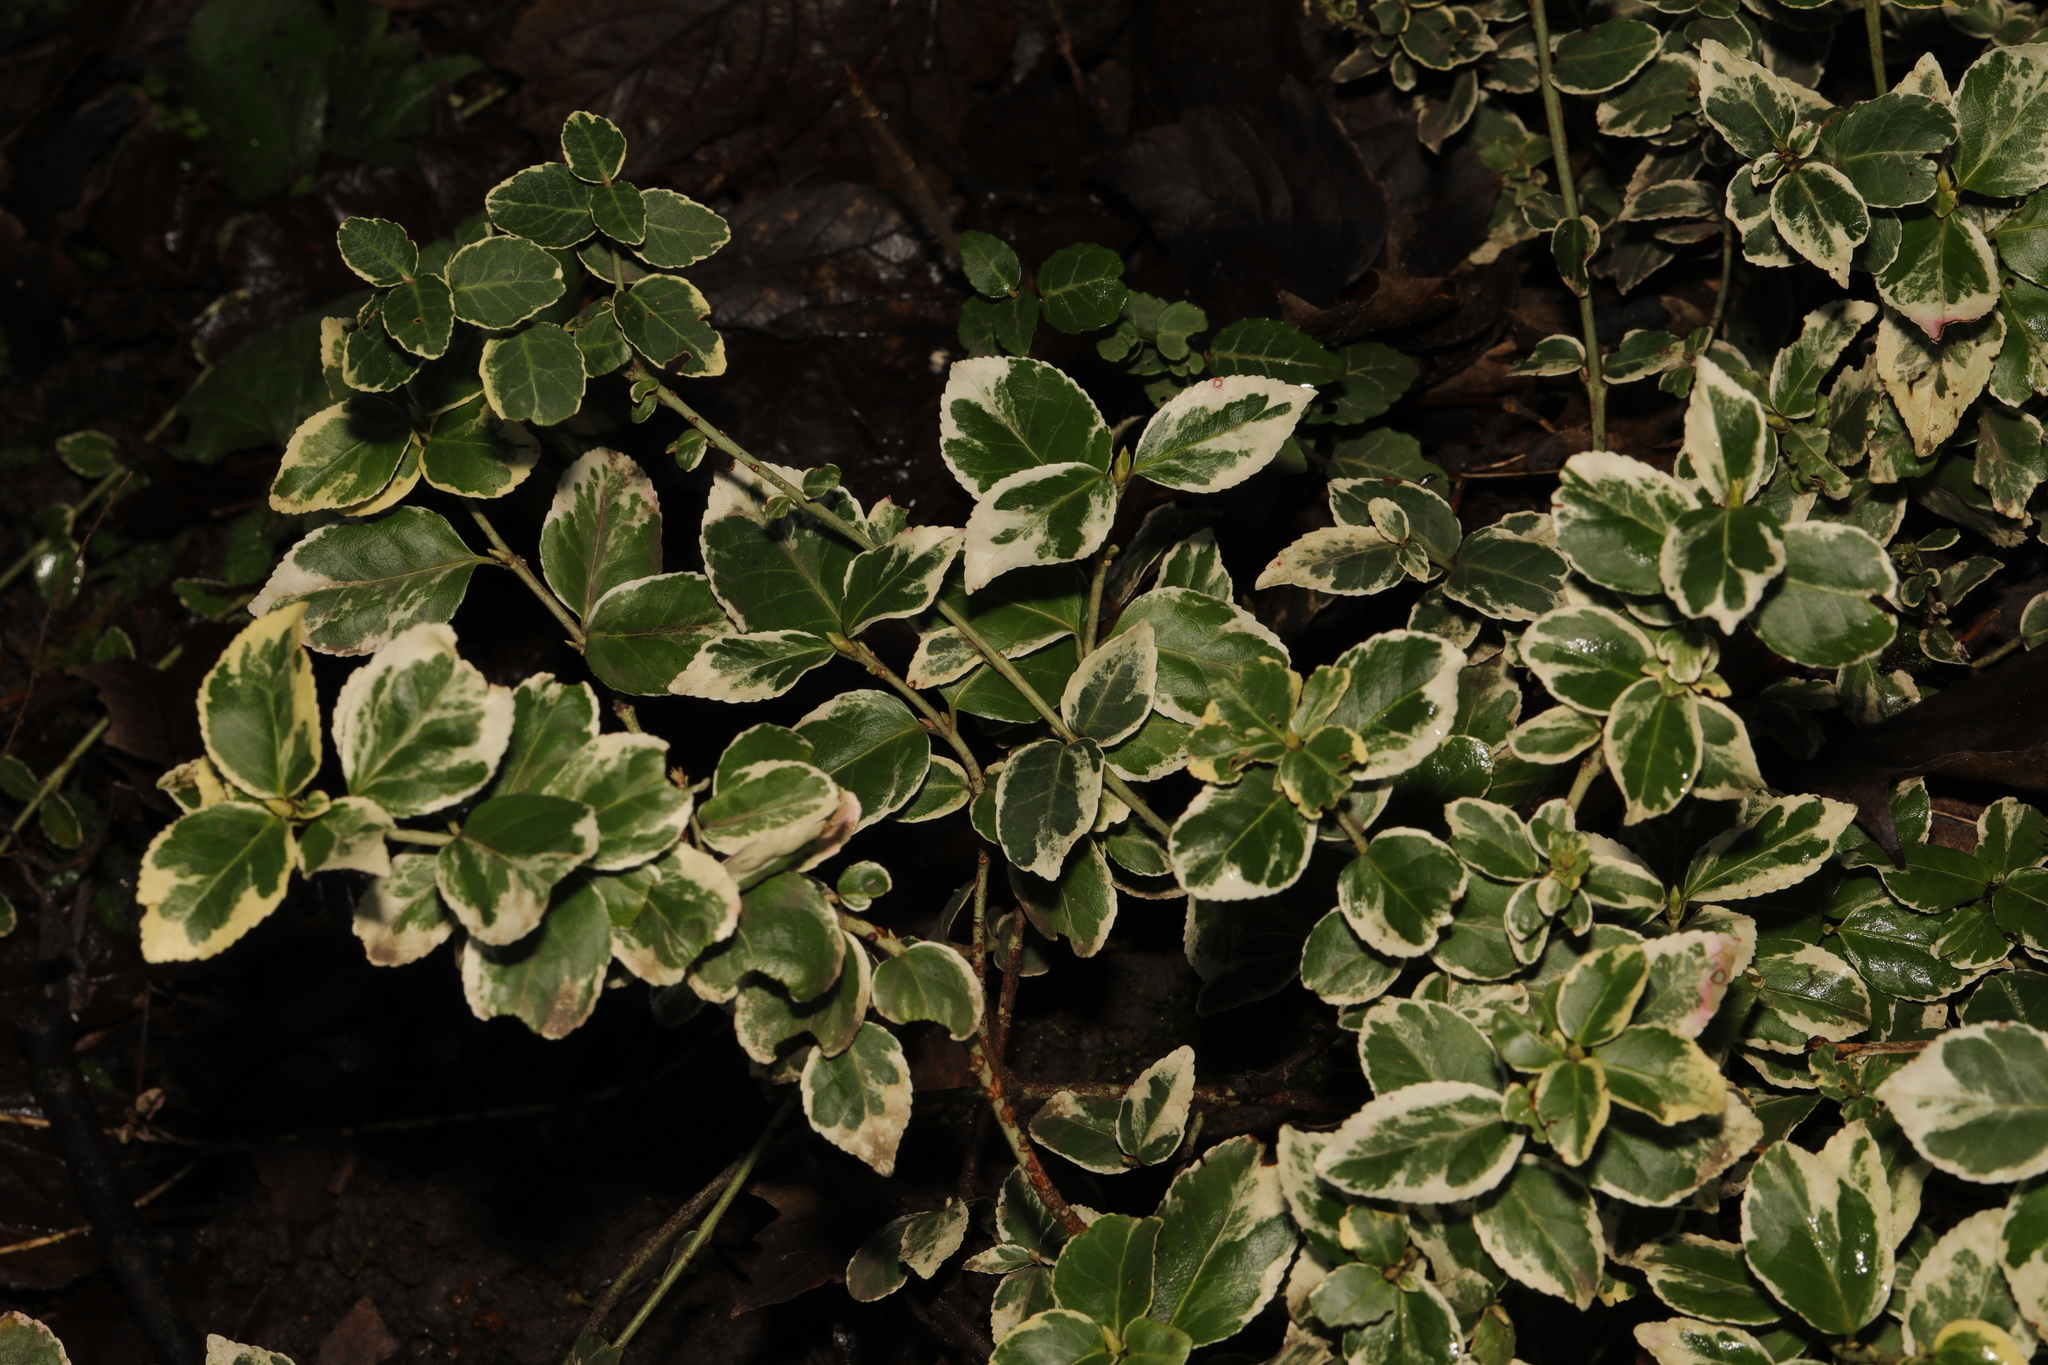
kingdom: Plantae
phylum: Tracheophyta
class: Magnoliopsida
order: Celastrales
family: Celastraceae
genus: Euonymus
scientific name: Euonymus japonicus
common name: Japanese spindletree
